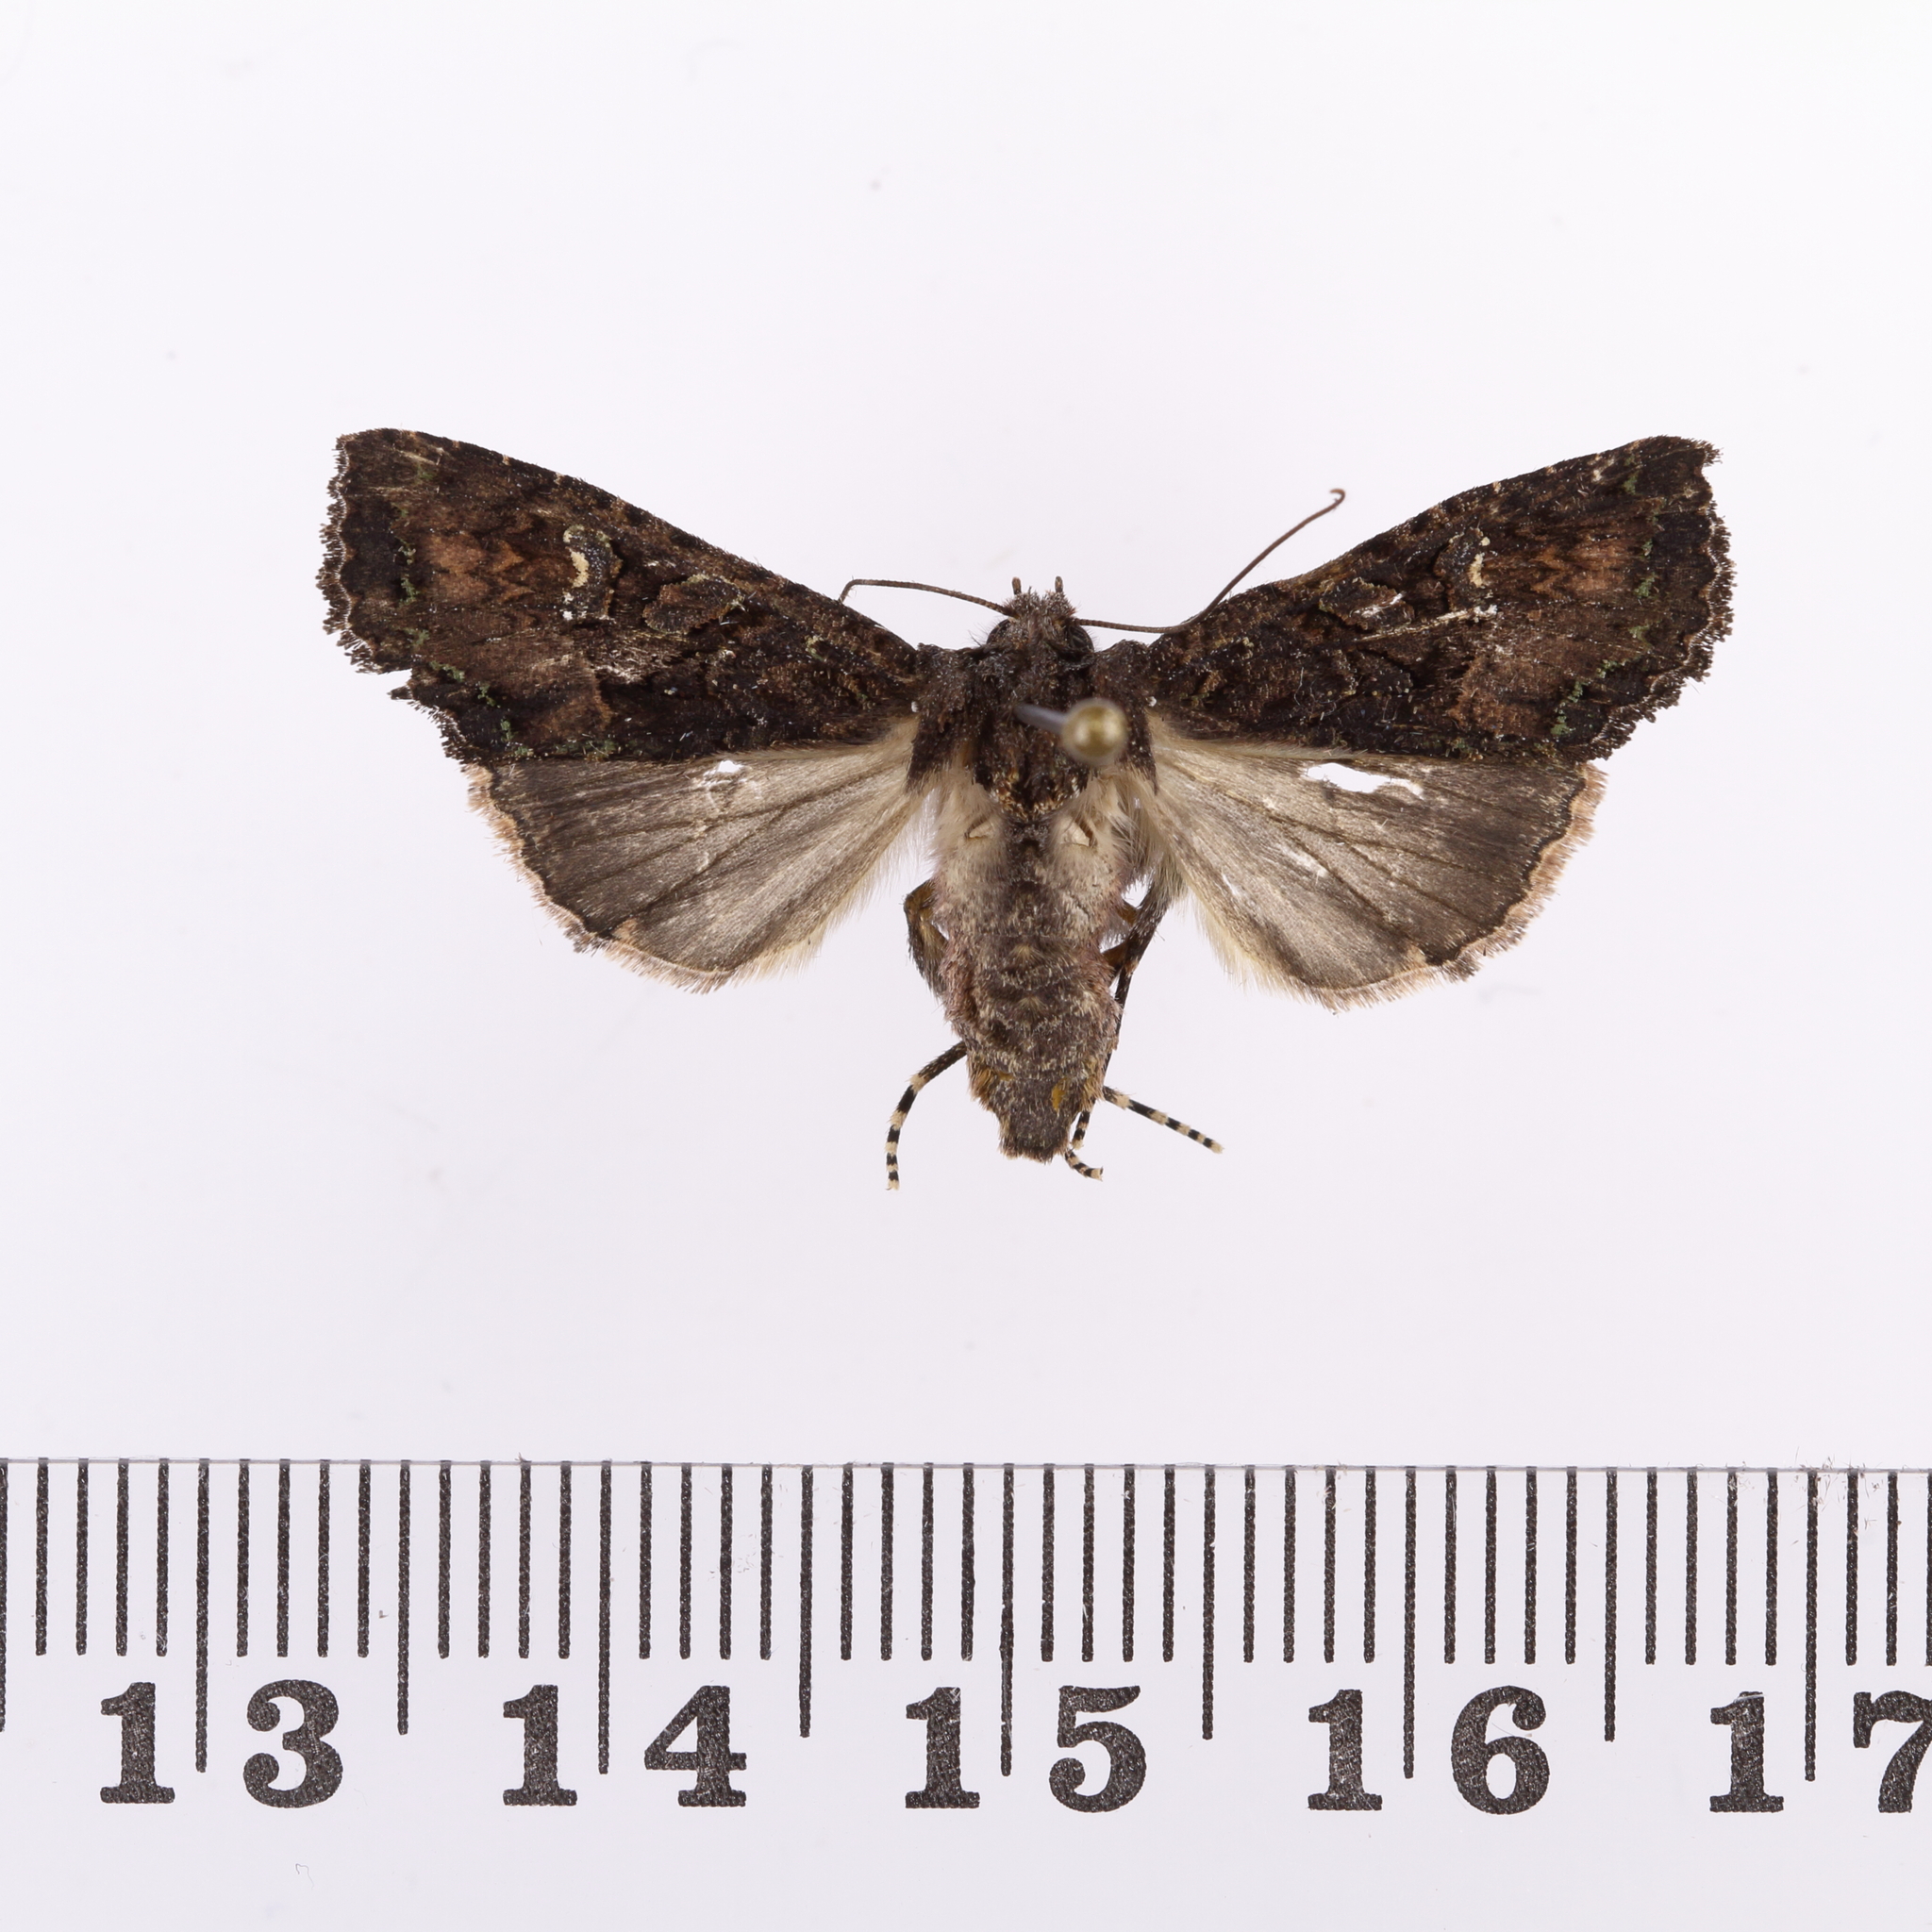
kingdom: Animalia
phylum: Arthropoda
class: Insecta
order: Lepidoptera
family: Noctuidae
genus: Meterana
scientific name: Meterana ochthistis
